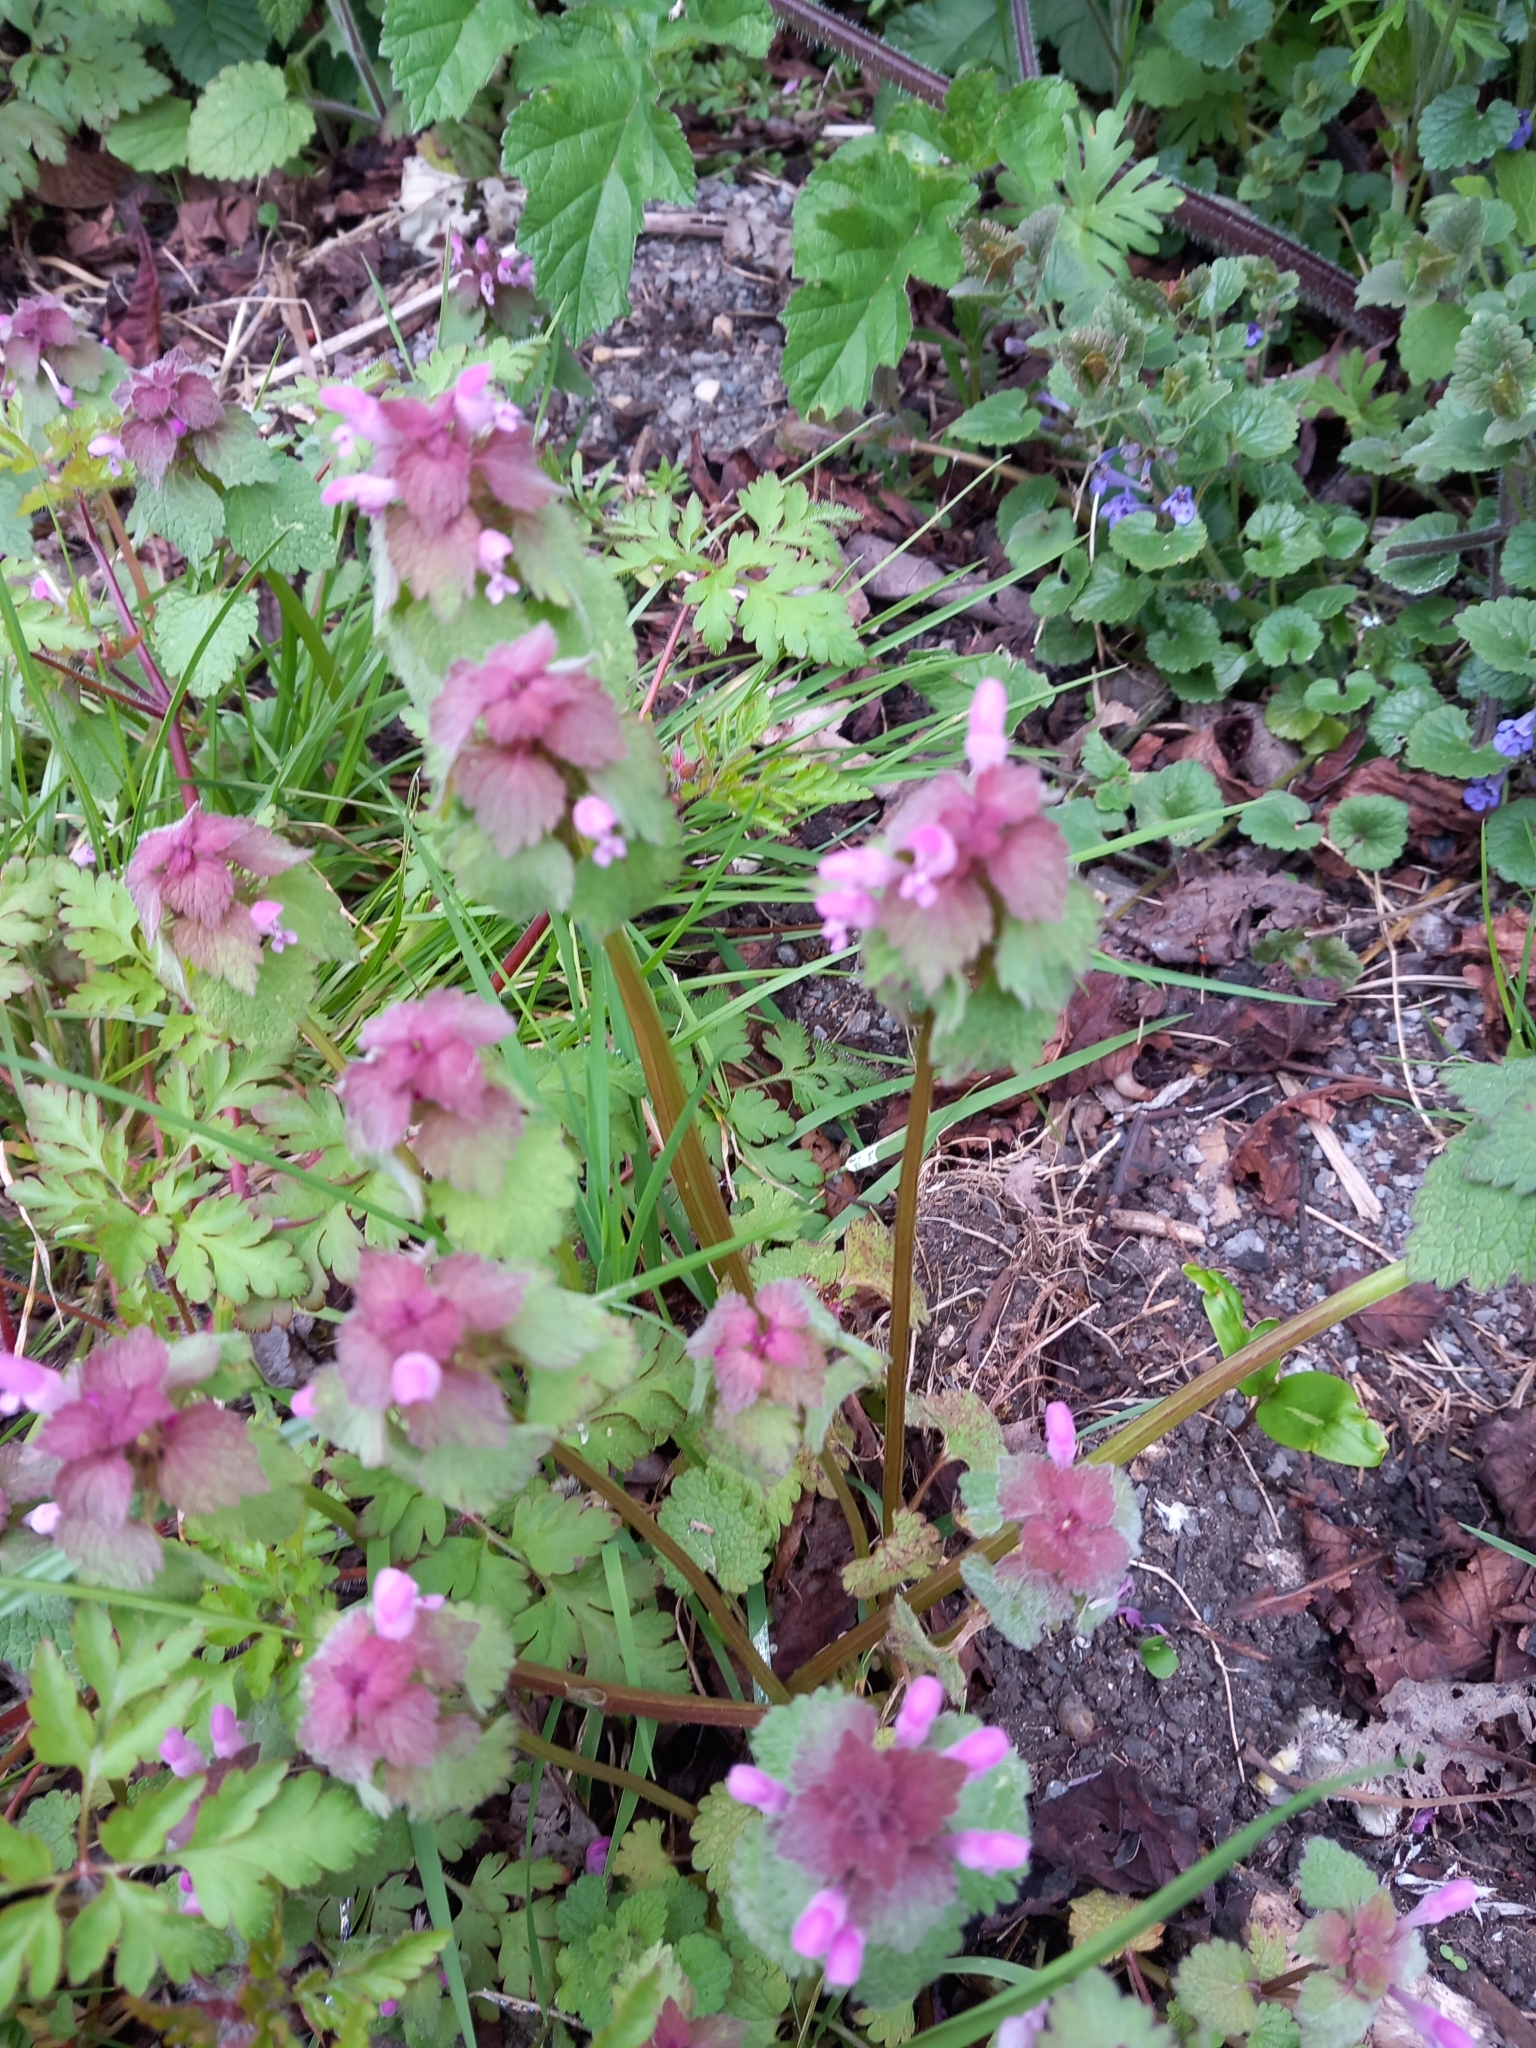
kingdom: Plantae
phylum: Tracheophyta
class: Magnoliopsida
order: Lamiales
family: Lamiaceae
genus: Lamium
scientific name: Lamium purpureum
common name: Red dead-nettle
